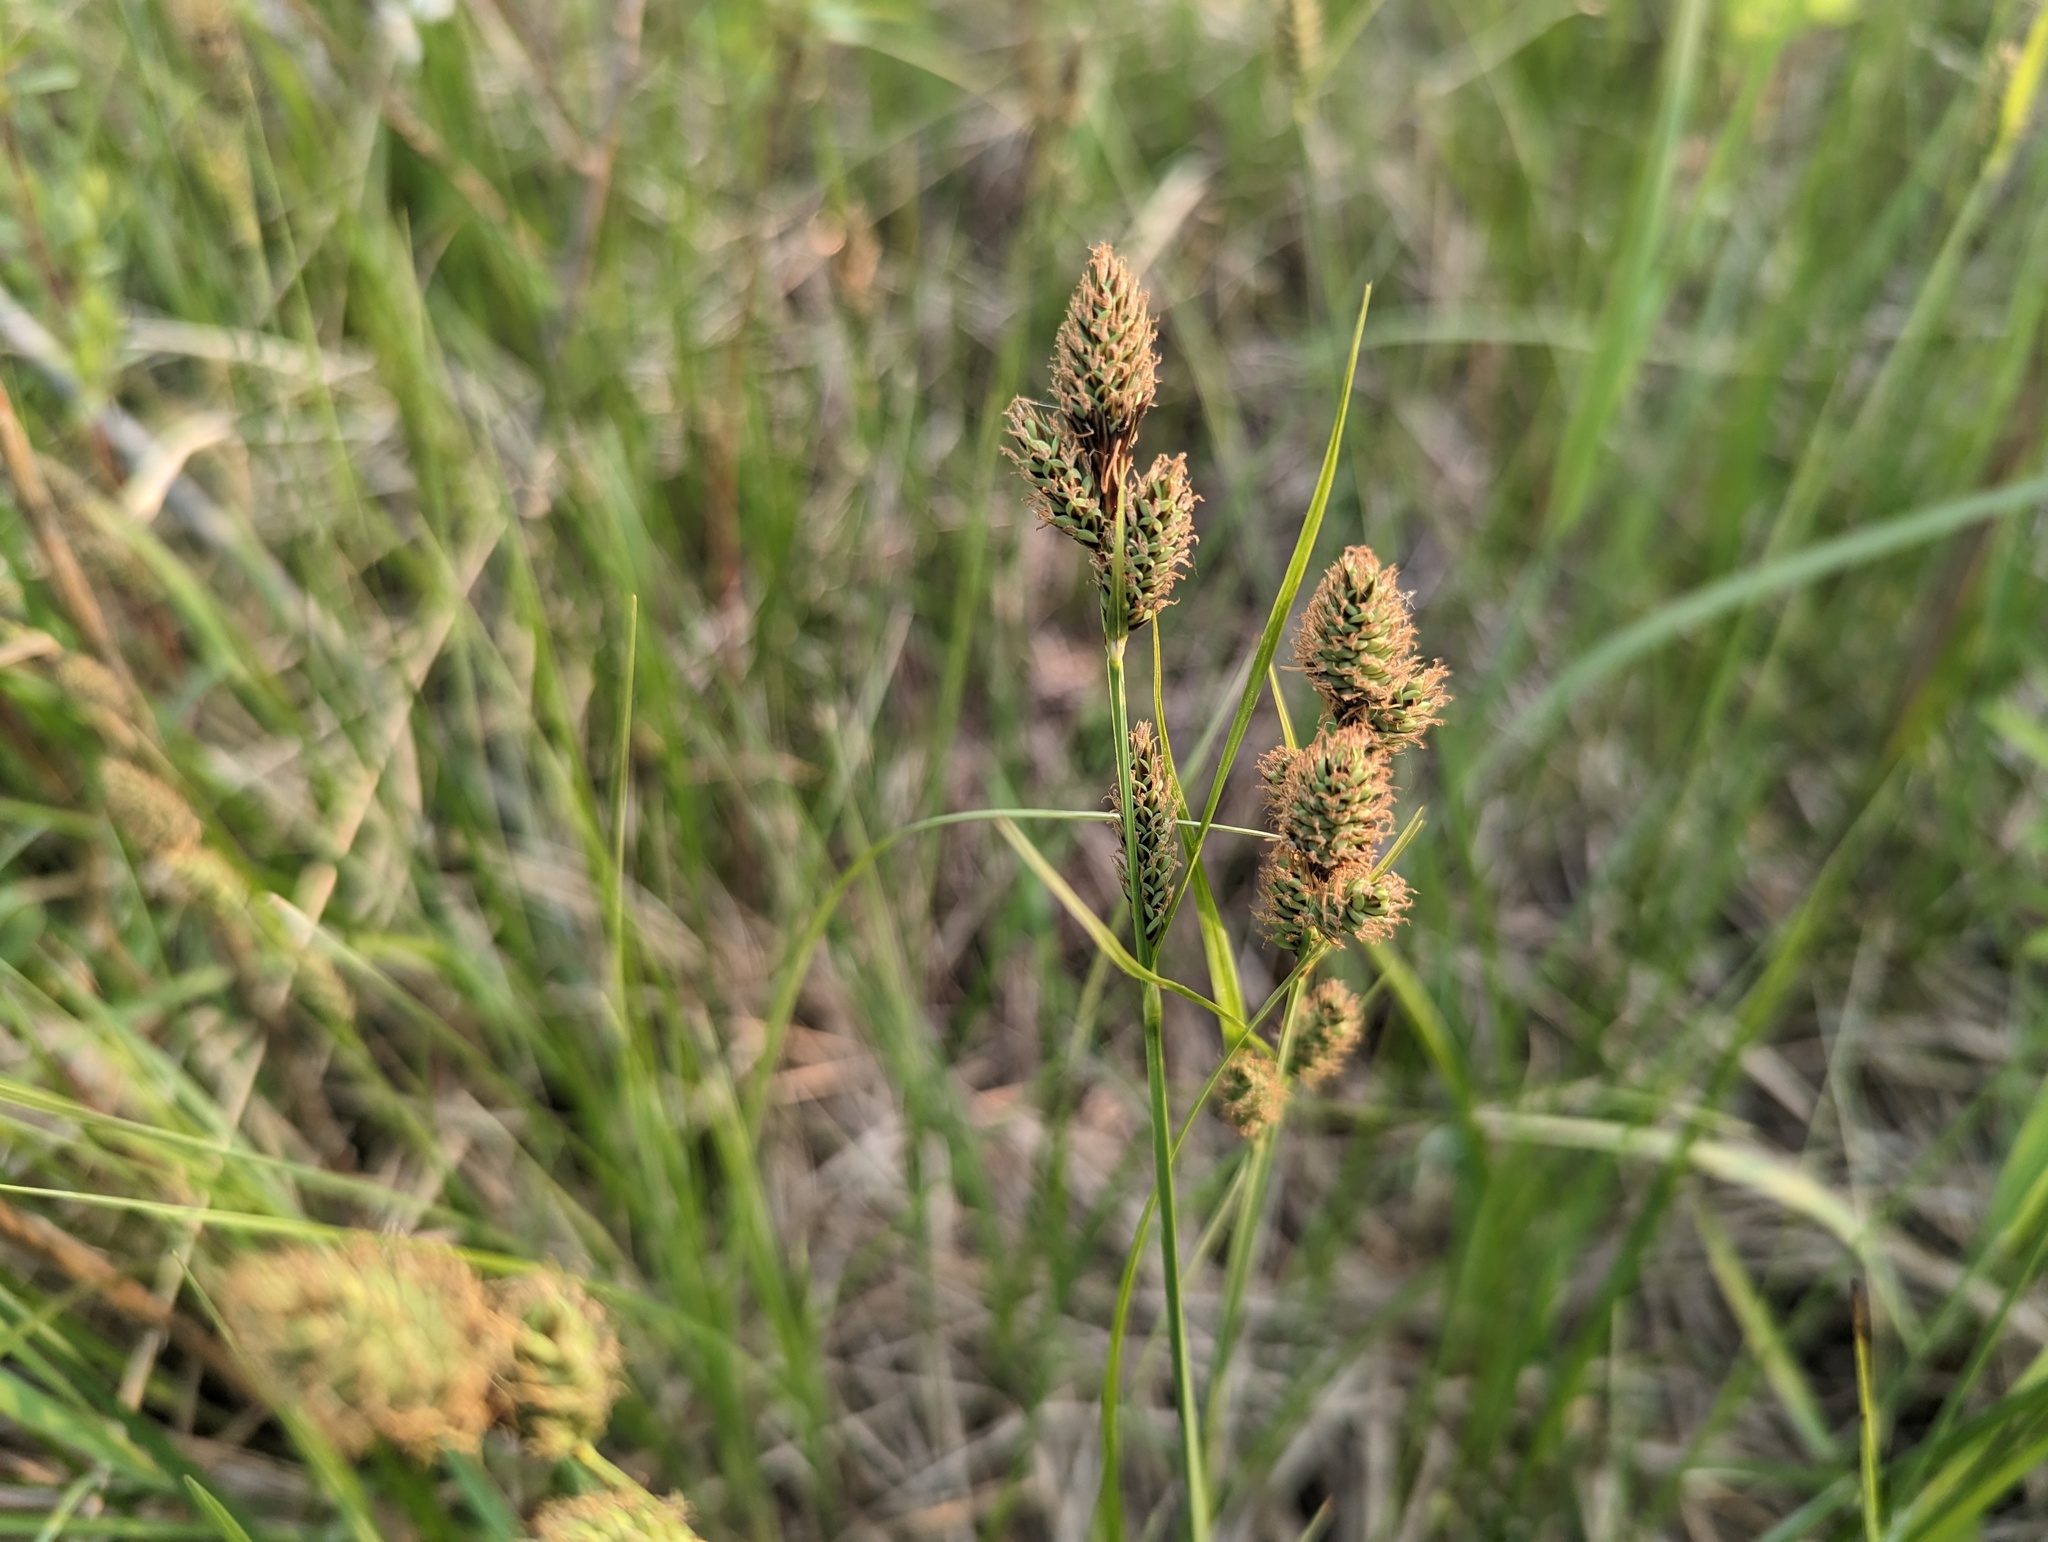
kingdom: Plantae
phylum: Tracheophyta
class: Liliopsida
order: Poales
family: Cyperaceae
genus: Carex
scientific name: Carex buxbaumii
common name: Club sedge
